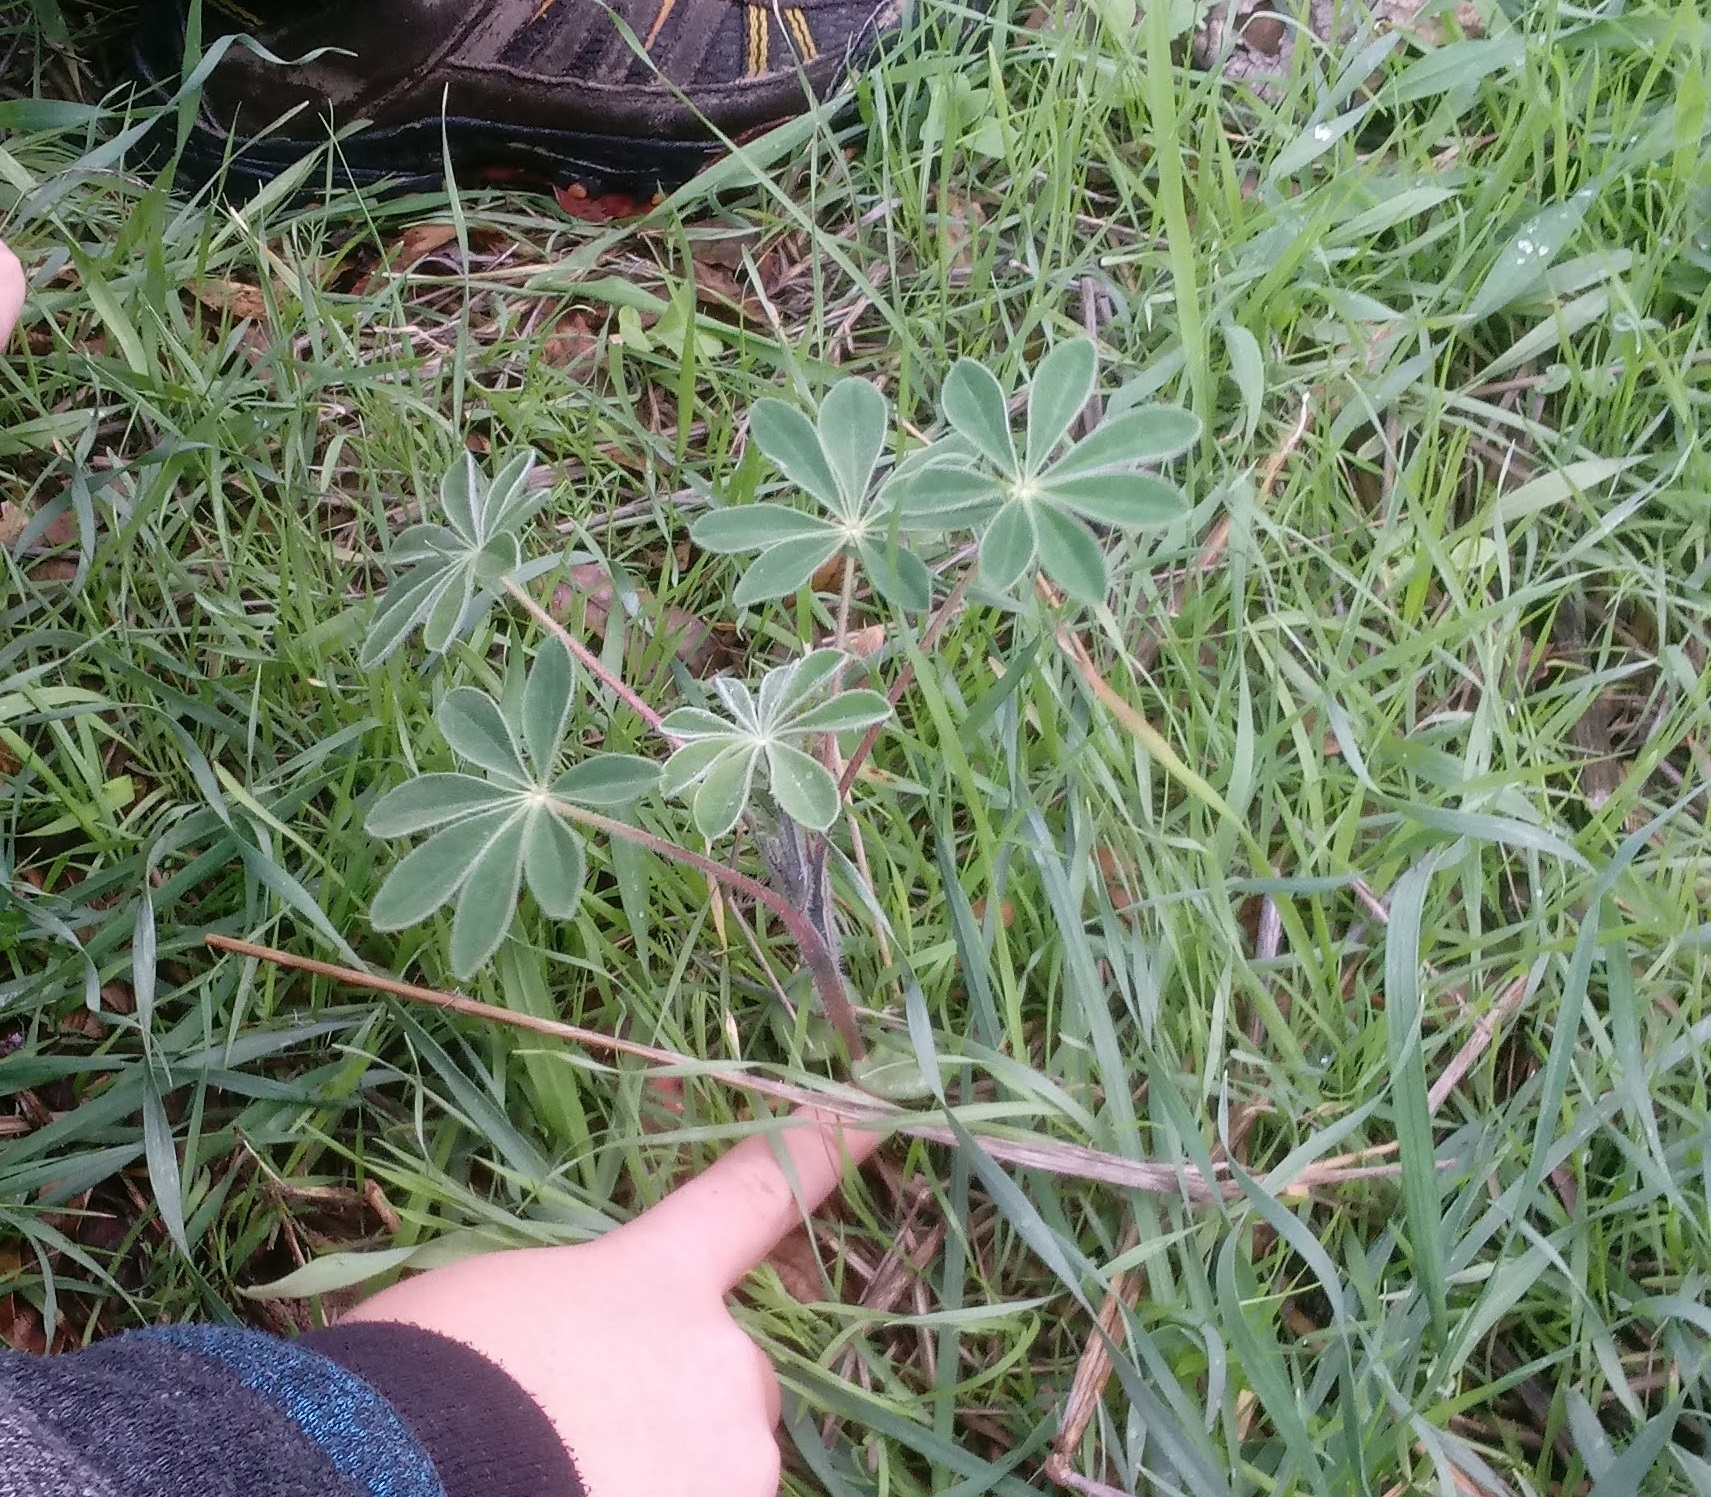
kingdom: Plantae
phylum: Tracheophyta
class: Magnoliopsida
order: Fabales
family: Fabaceae
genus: Lupinus
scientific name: Lupinus pilosus
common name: Blue lupine
